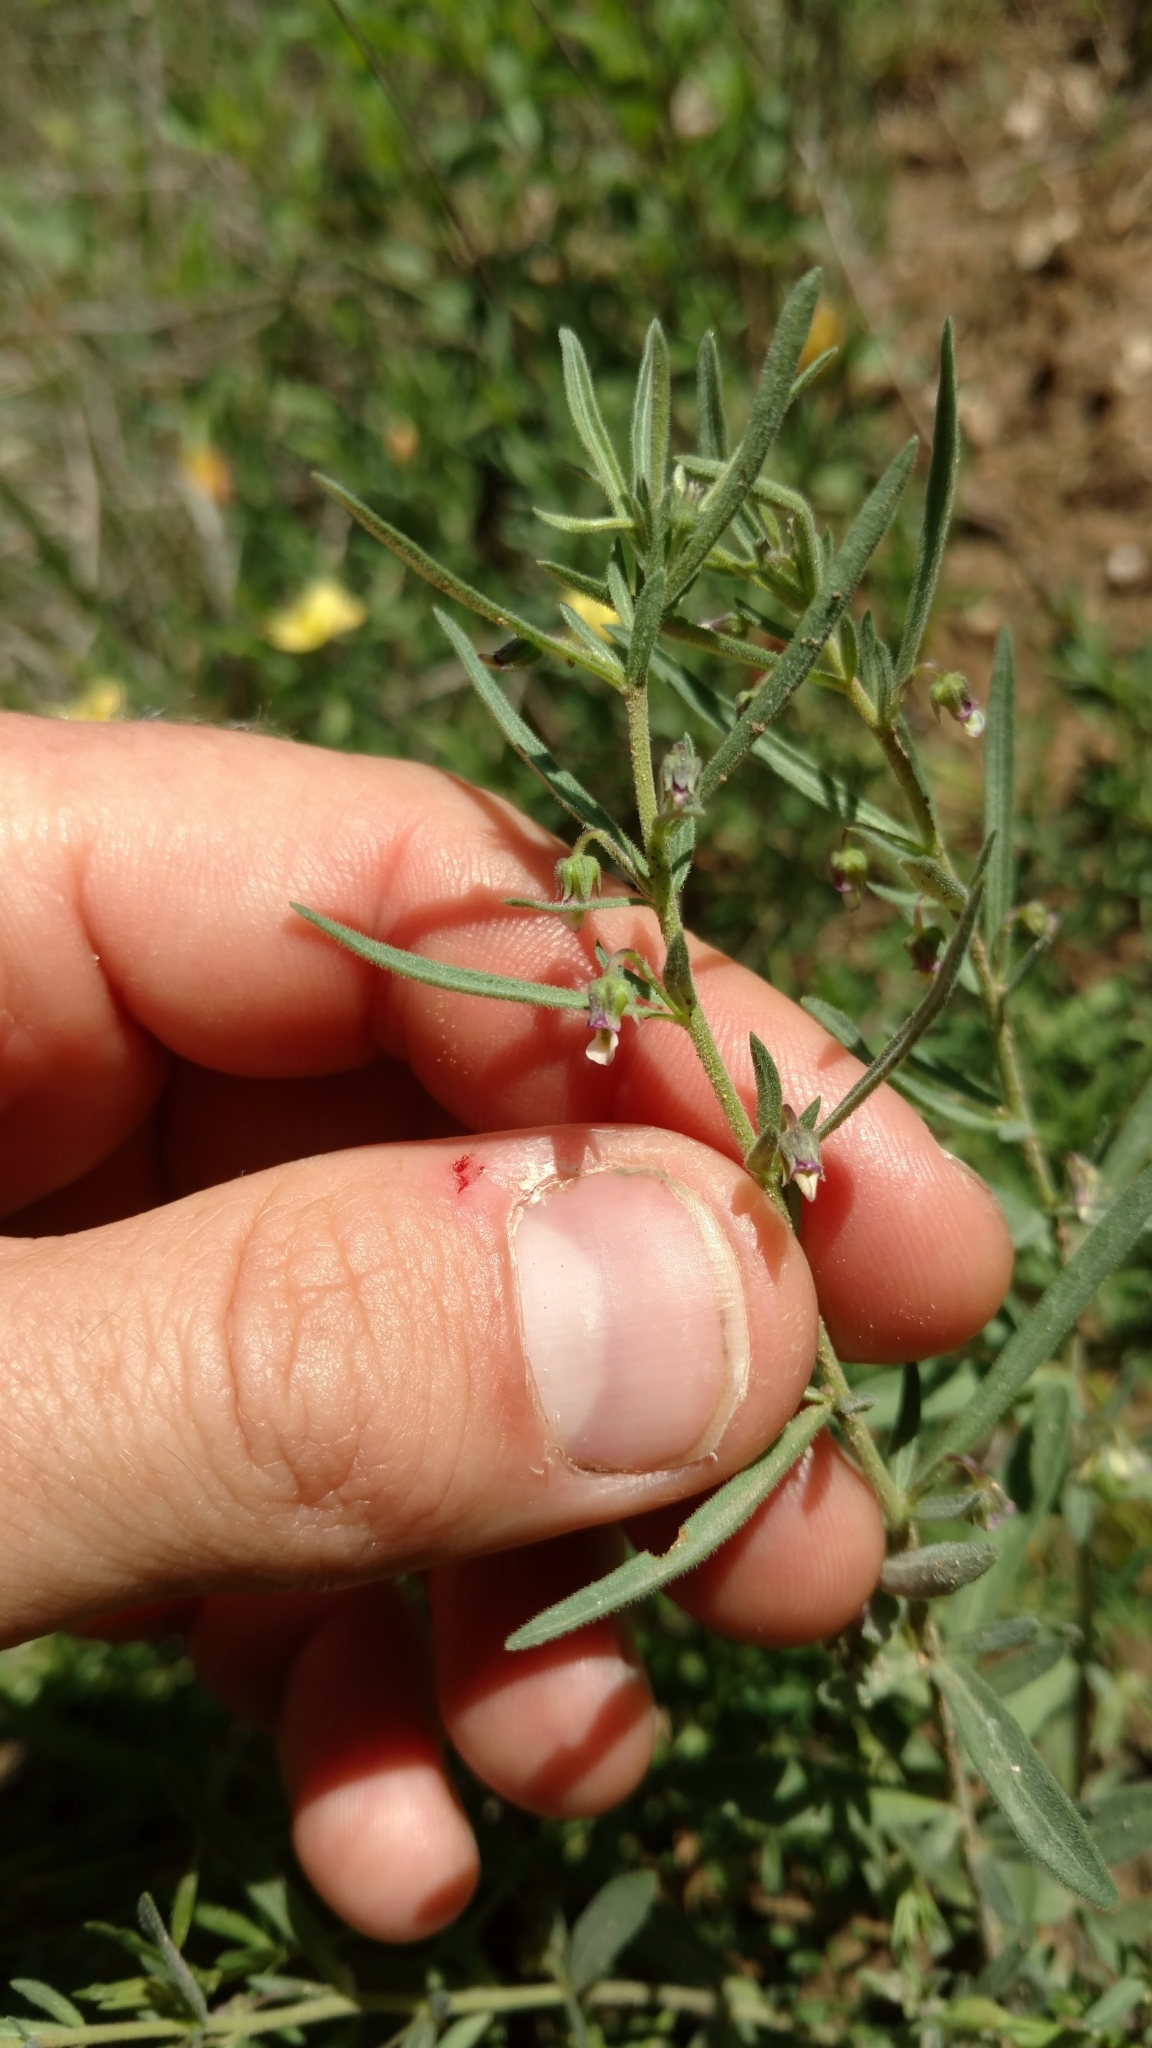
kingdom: Plantae
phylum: Tracheophyta
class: Magnoliopsida
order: Malpighiales
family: Violaceae
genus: Pombalia
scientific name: Pombalia verticillata
